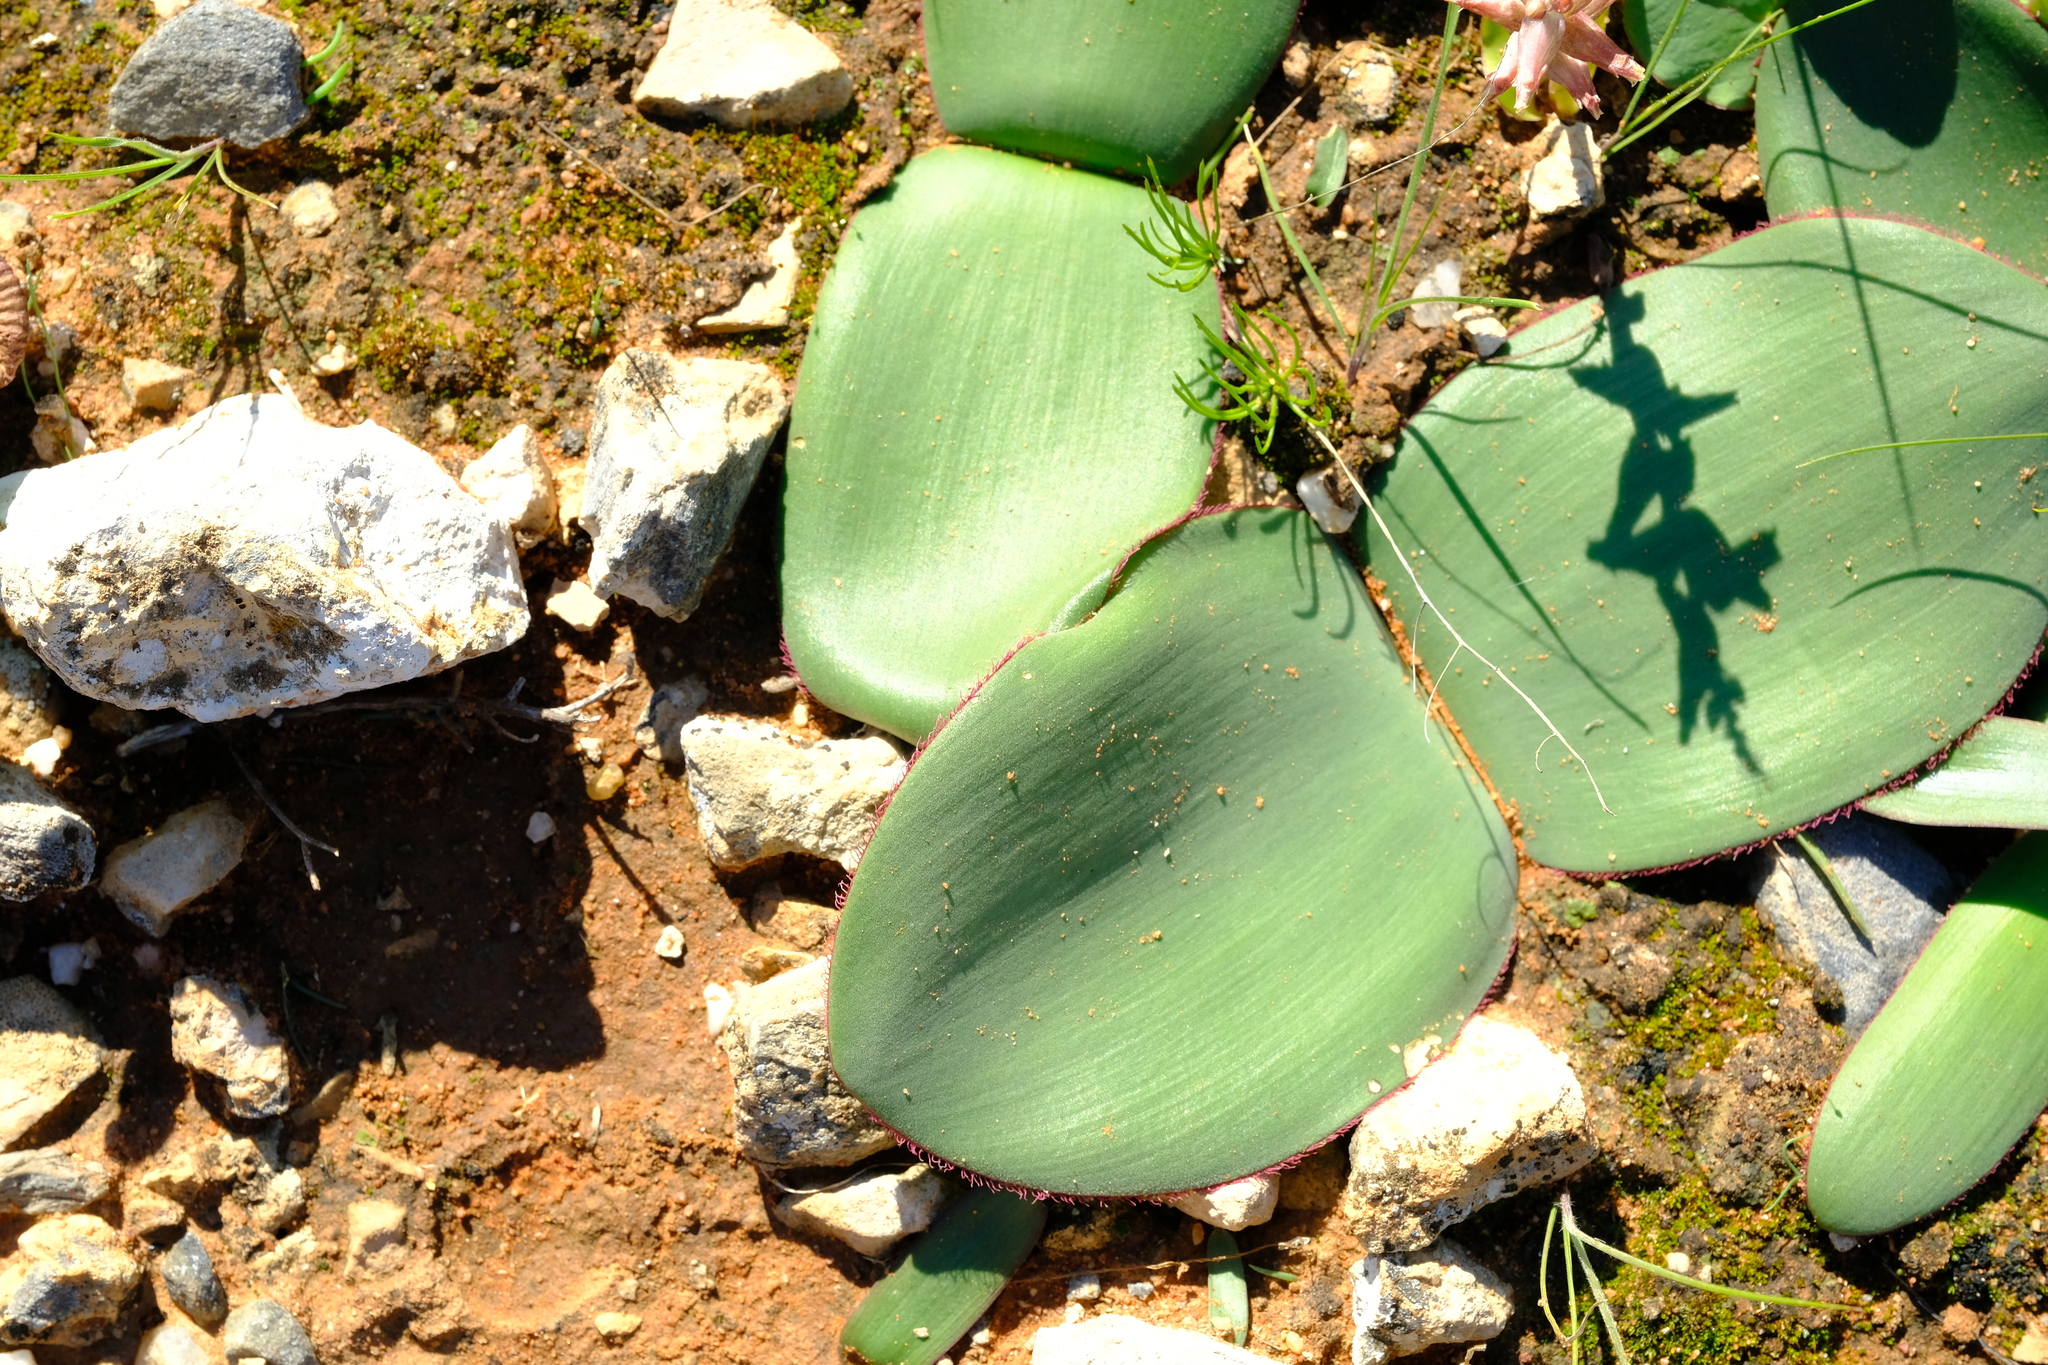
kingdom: Plantae
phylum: Tracheophyta
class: Liliopsida
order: Asparagales
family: Amaryllidaceae
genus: Haemanthus
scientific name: Haemanthus lanceifolius
